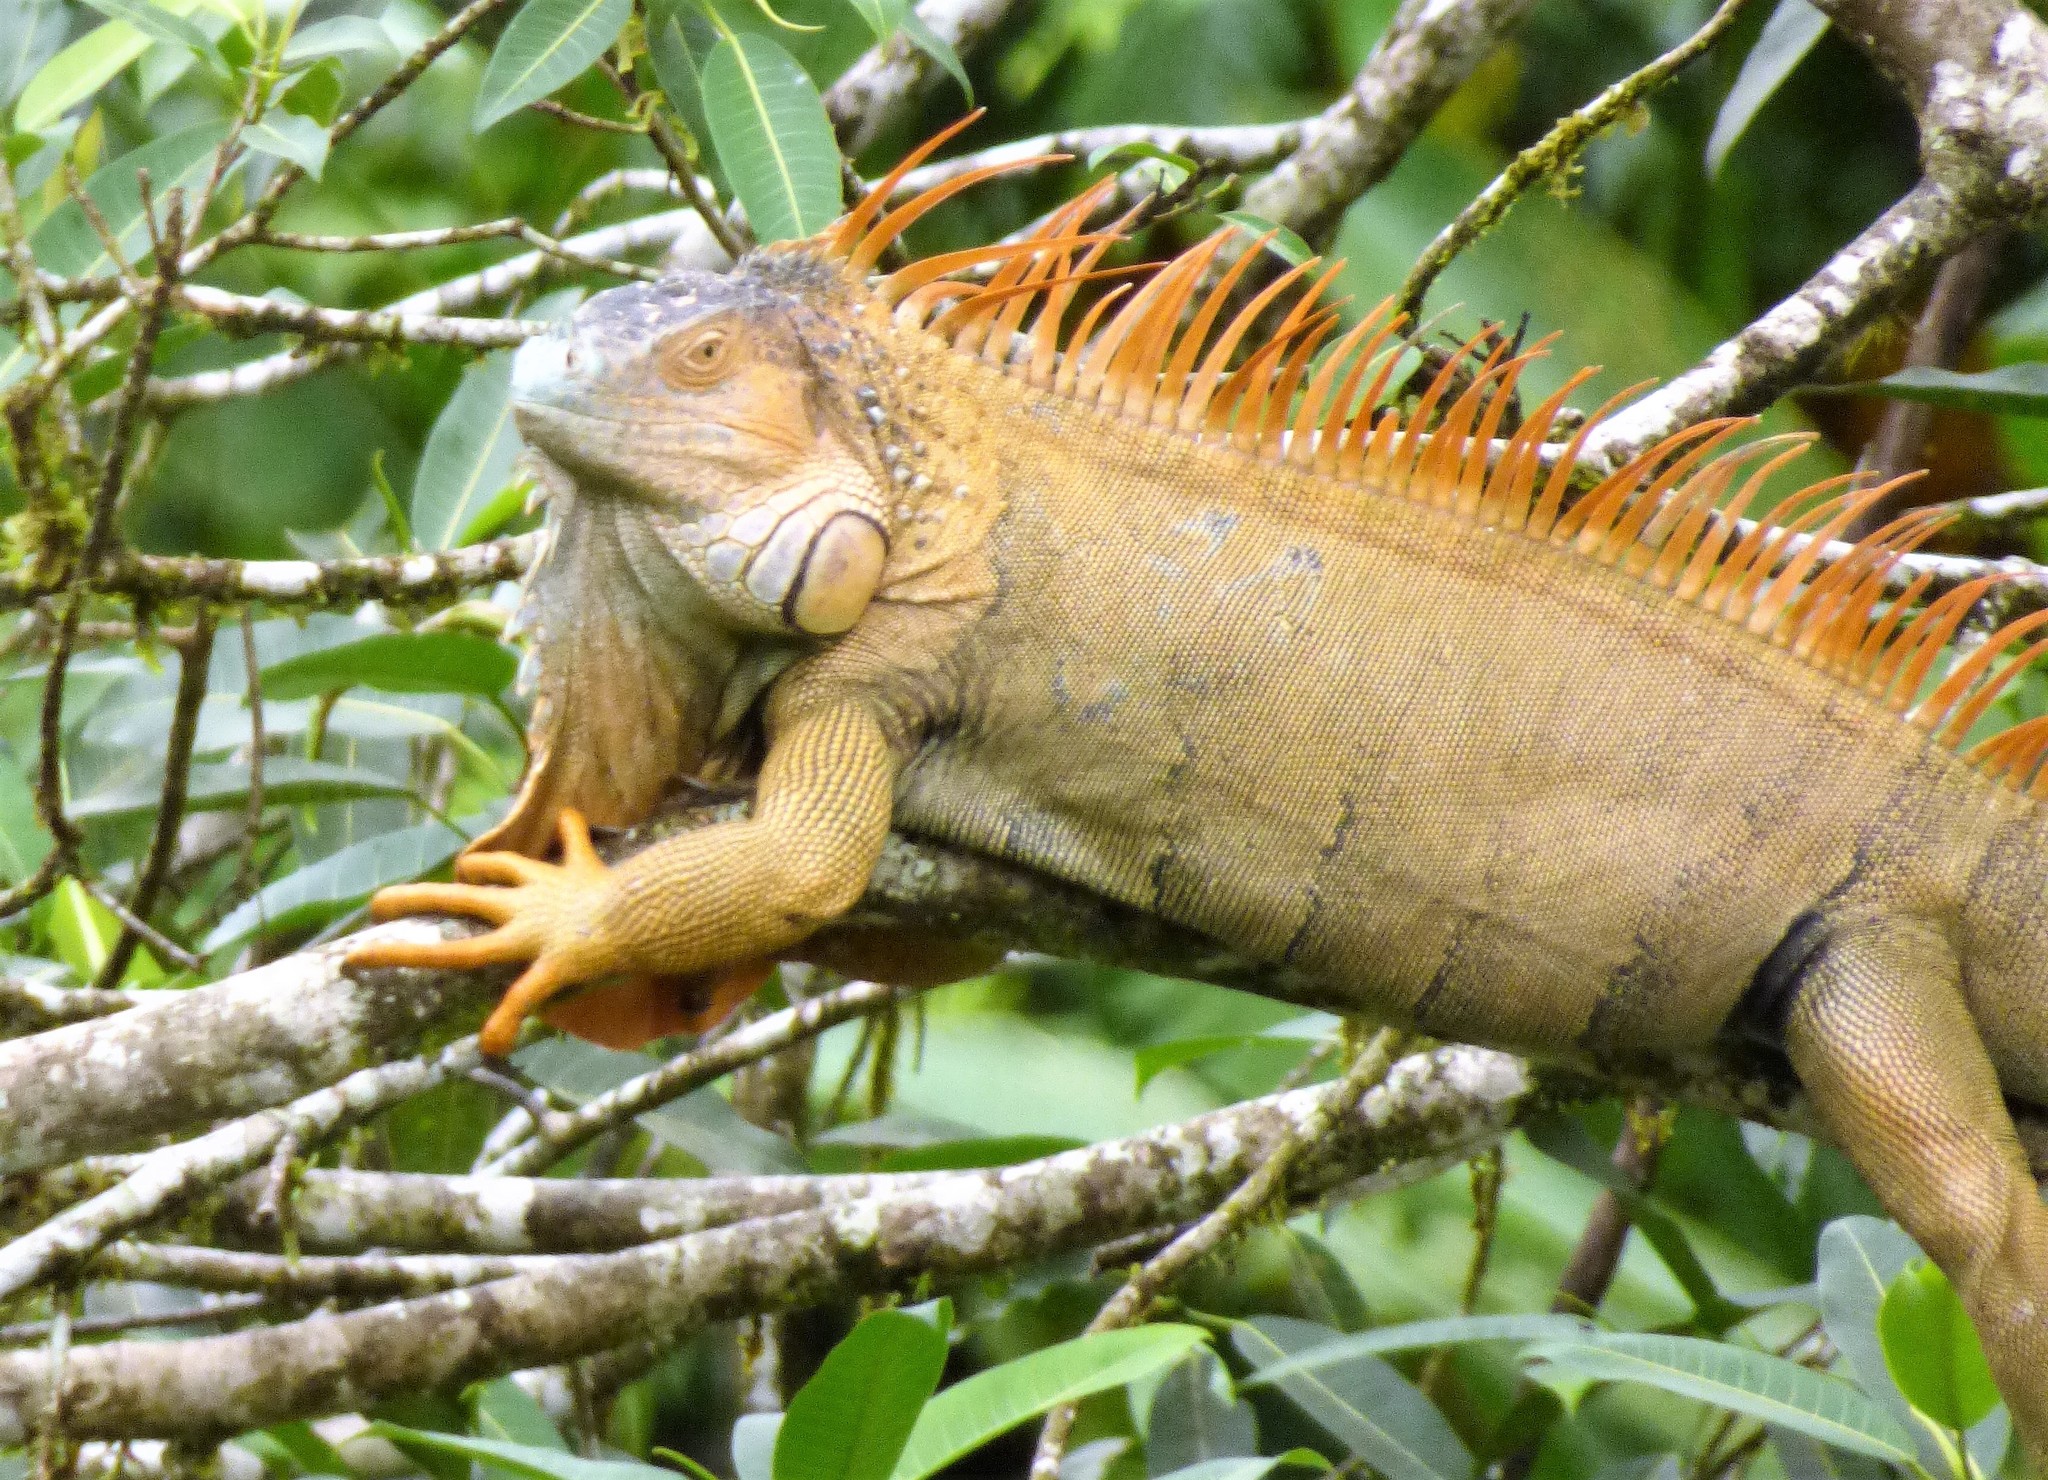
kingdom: Animalia
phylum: Chordata
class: Squamata
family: Iguanidae
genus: Iguana
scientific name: Iguana iguana
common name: Green iguana
